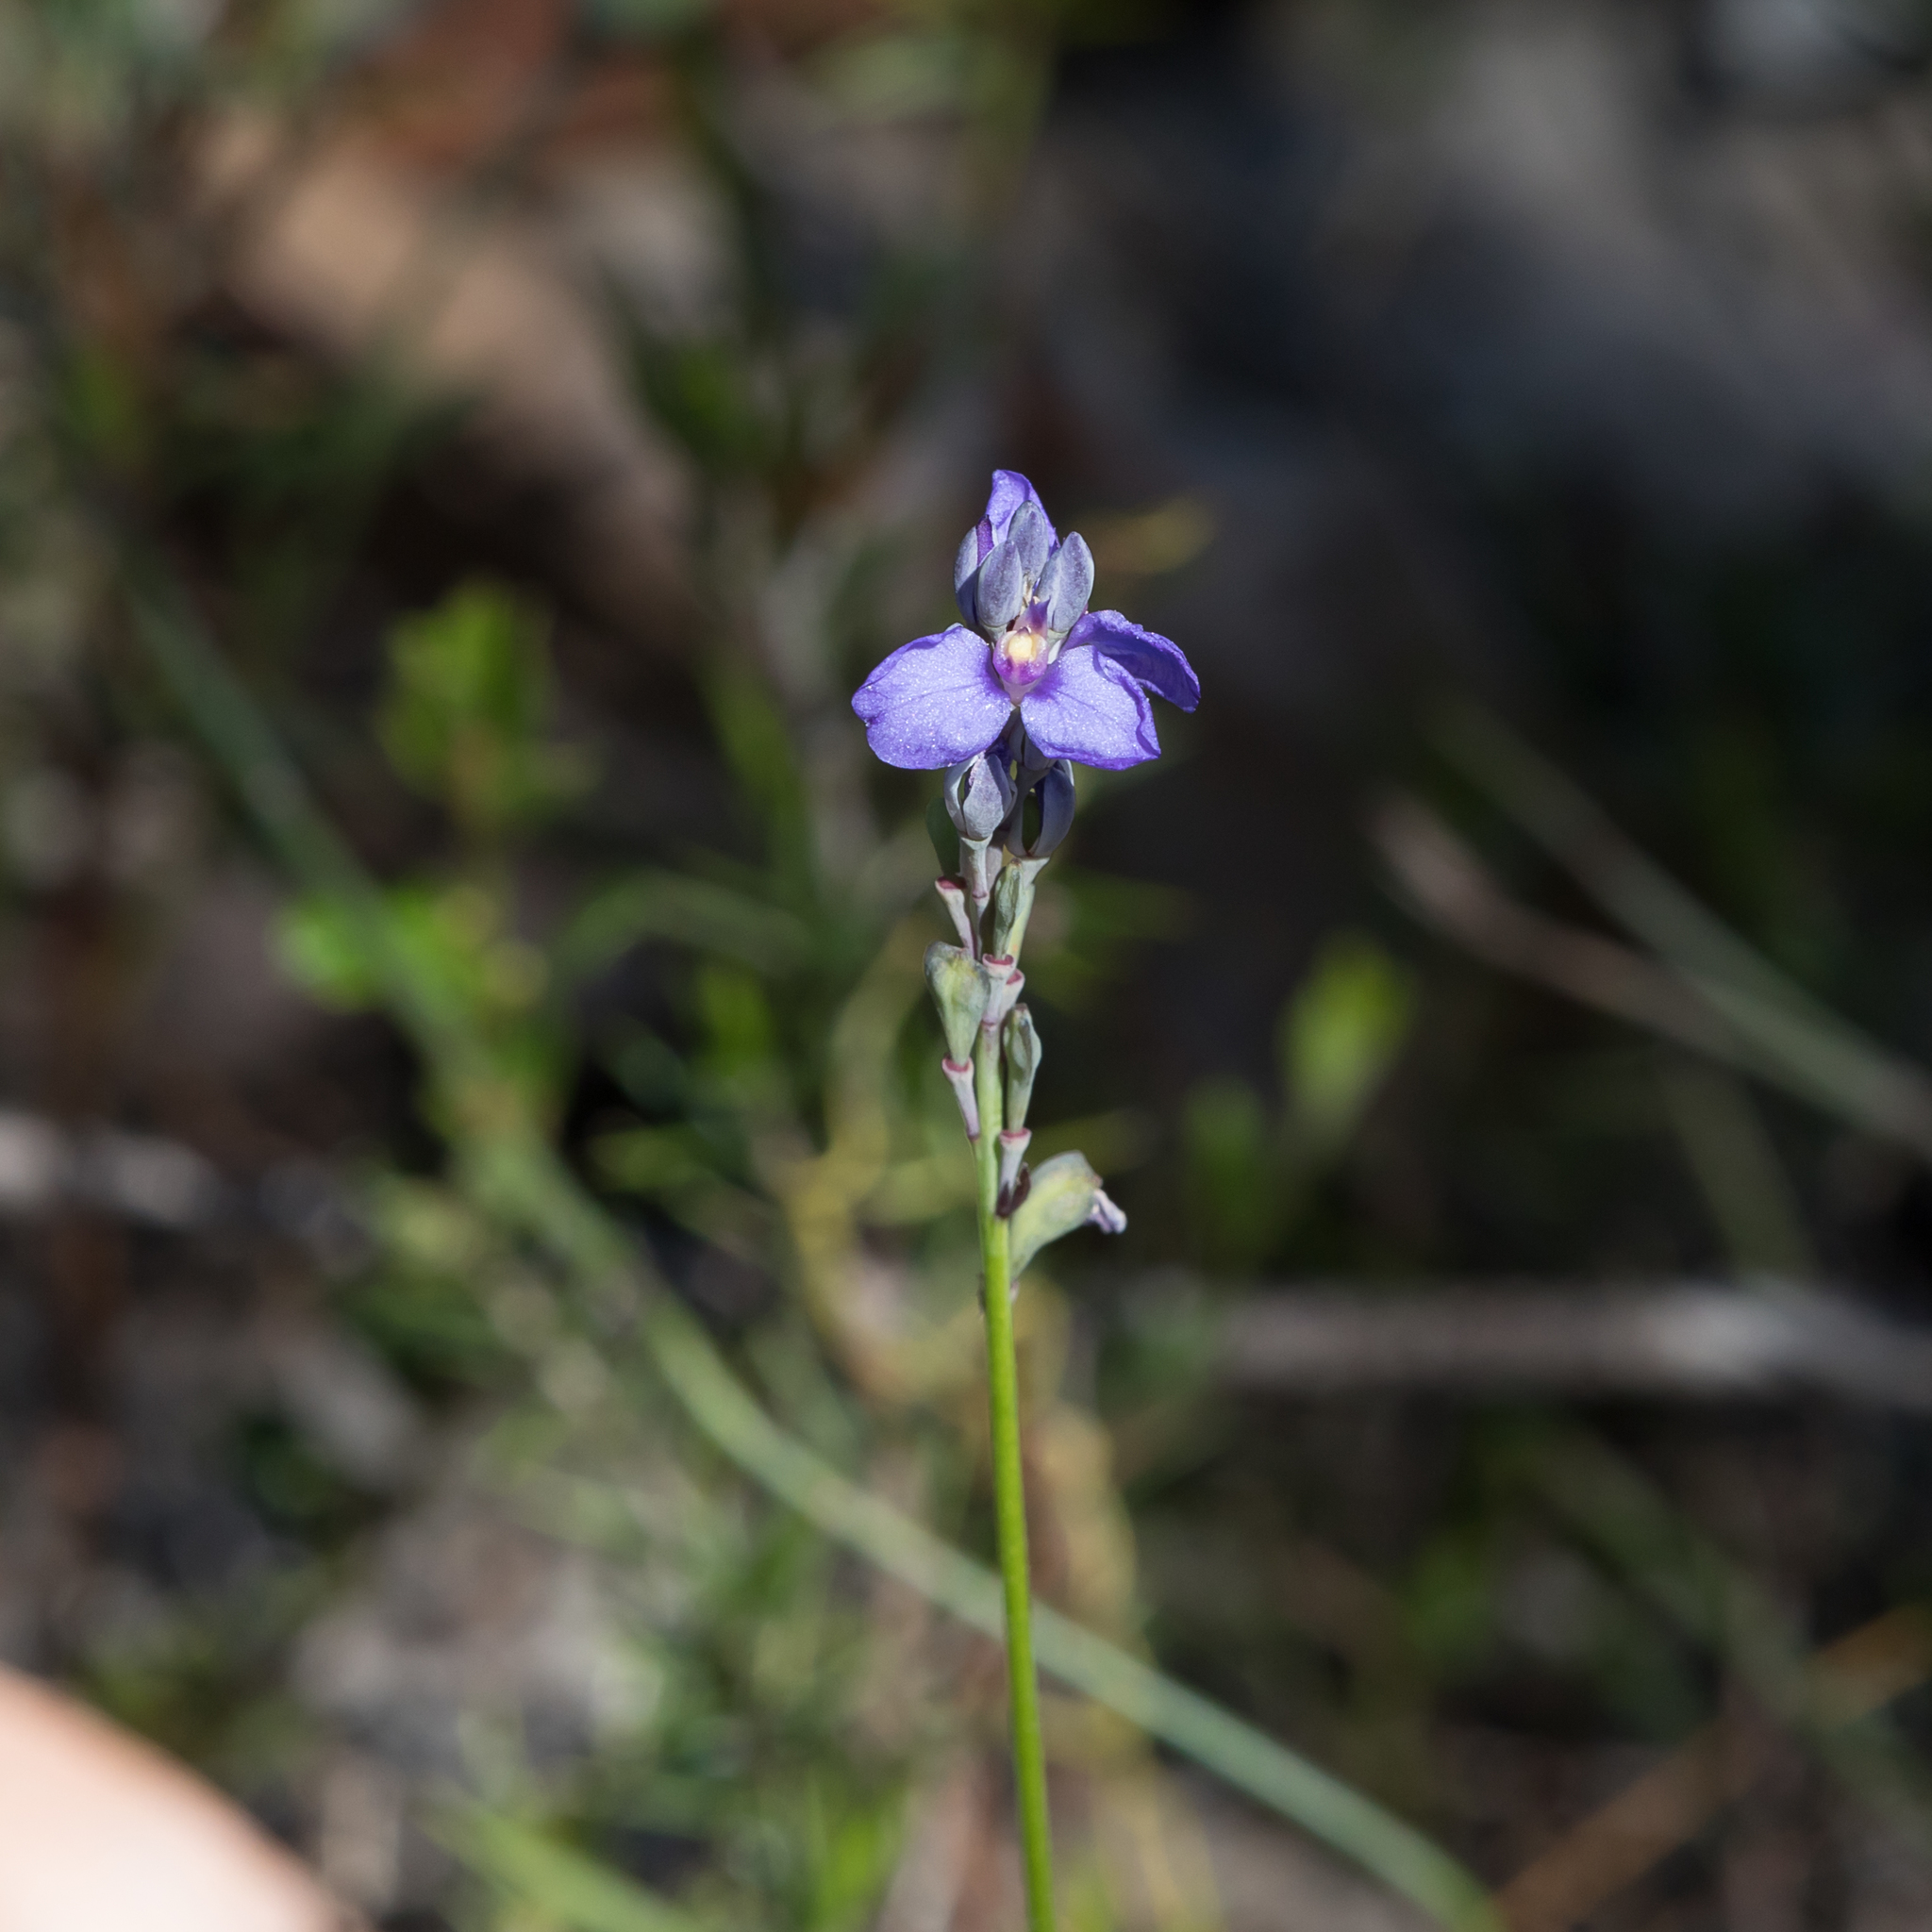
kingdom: Plantae
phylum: Tracheophyta
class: Magnoliopsida
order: Fabales
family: Polygalaceae
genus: Comesperma
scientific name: Comesperma calymega
